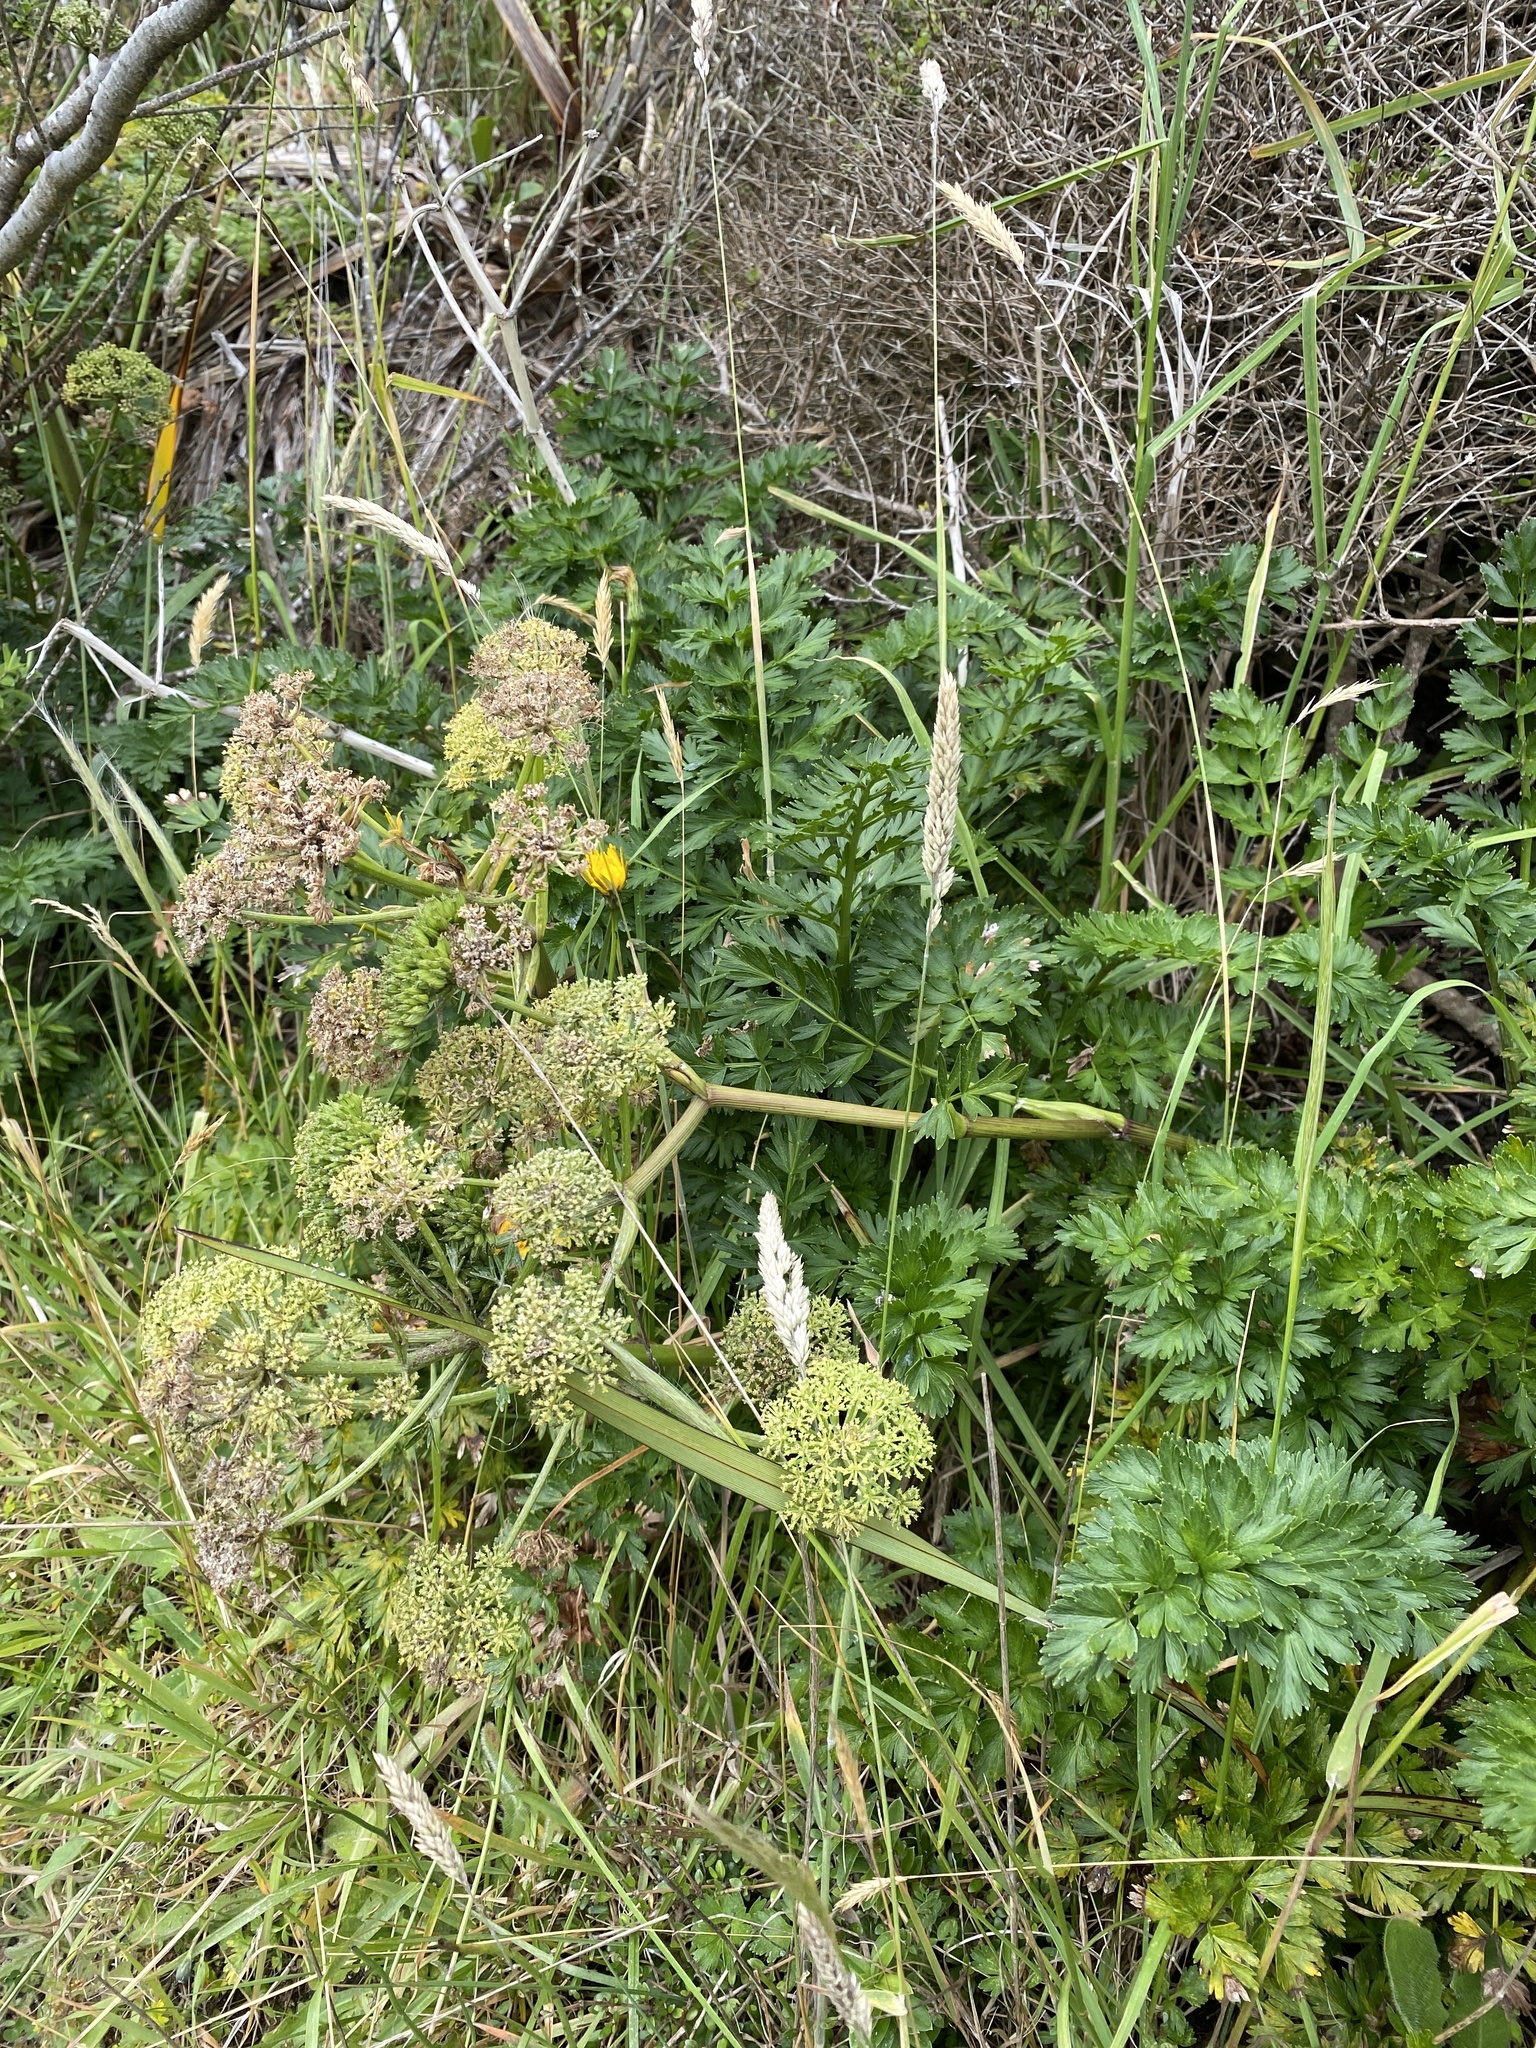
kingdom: Plantae
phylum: Tracheophyta
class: Magnoliopsida
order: Apiales
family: Apiaceae
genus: Anisotome
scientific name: Anisotome lyallii
